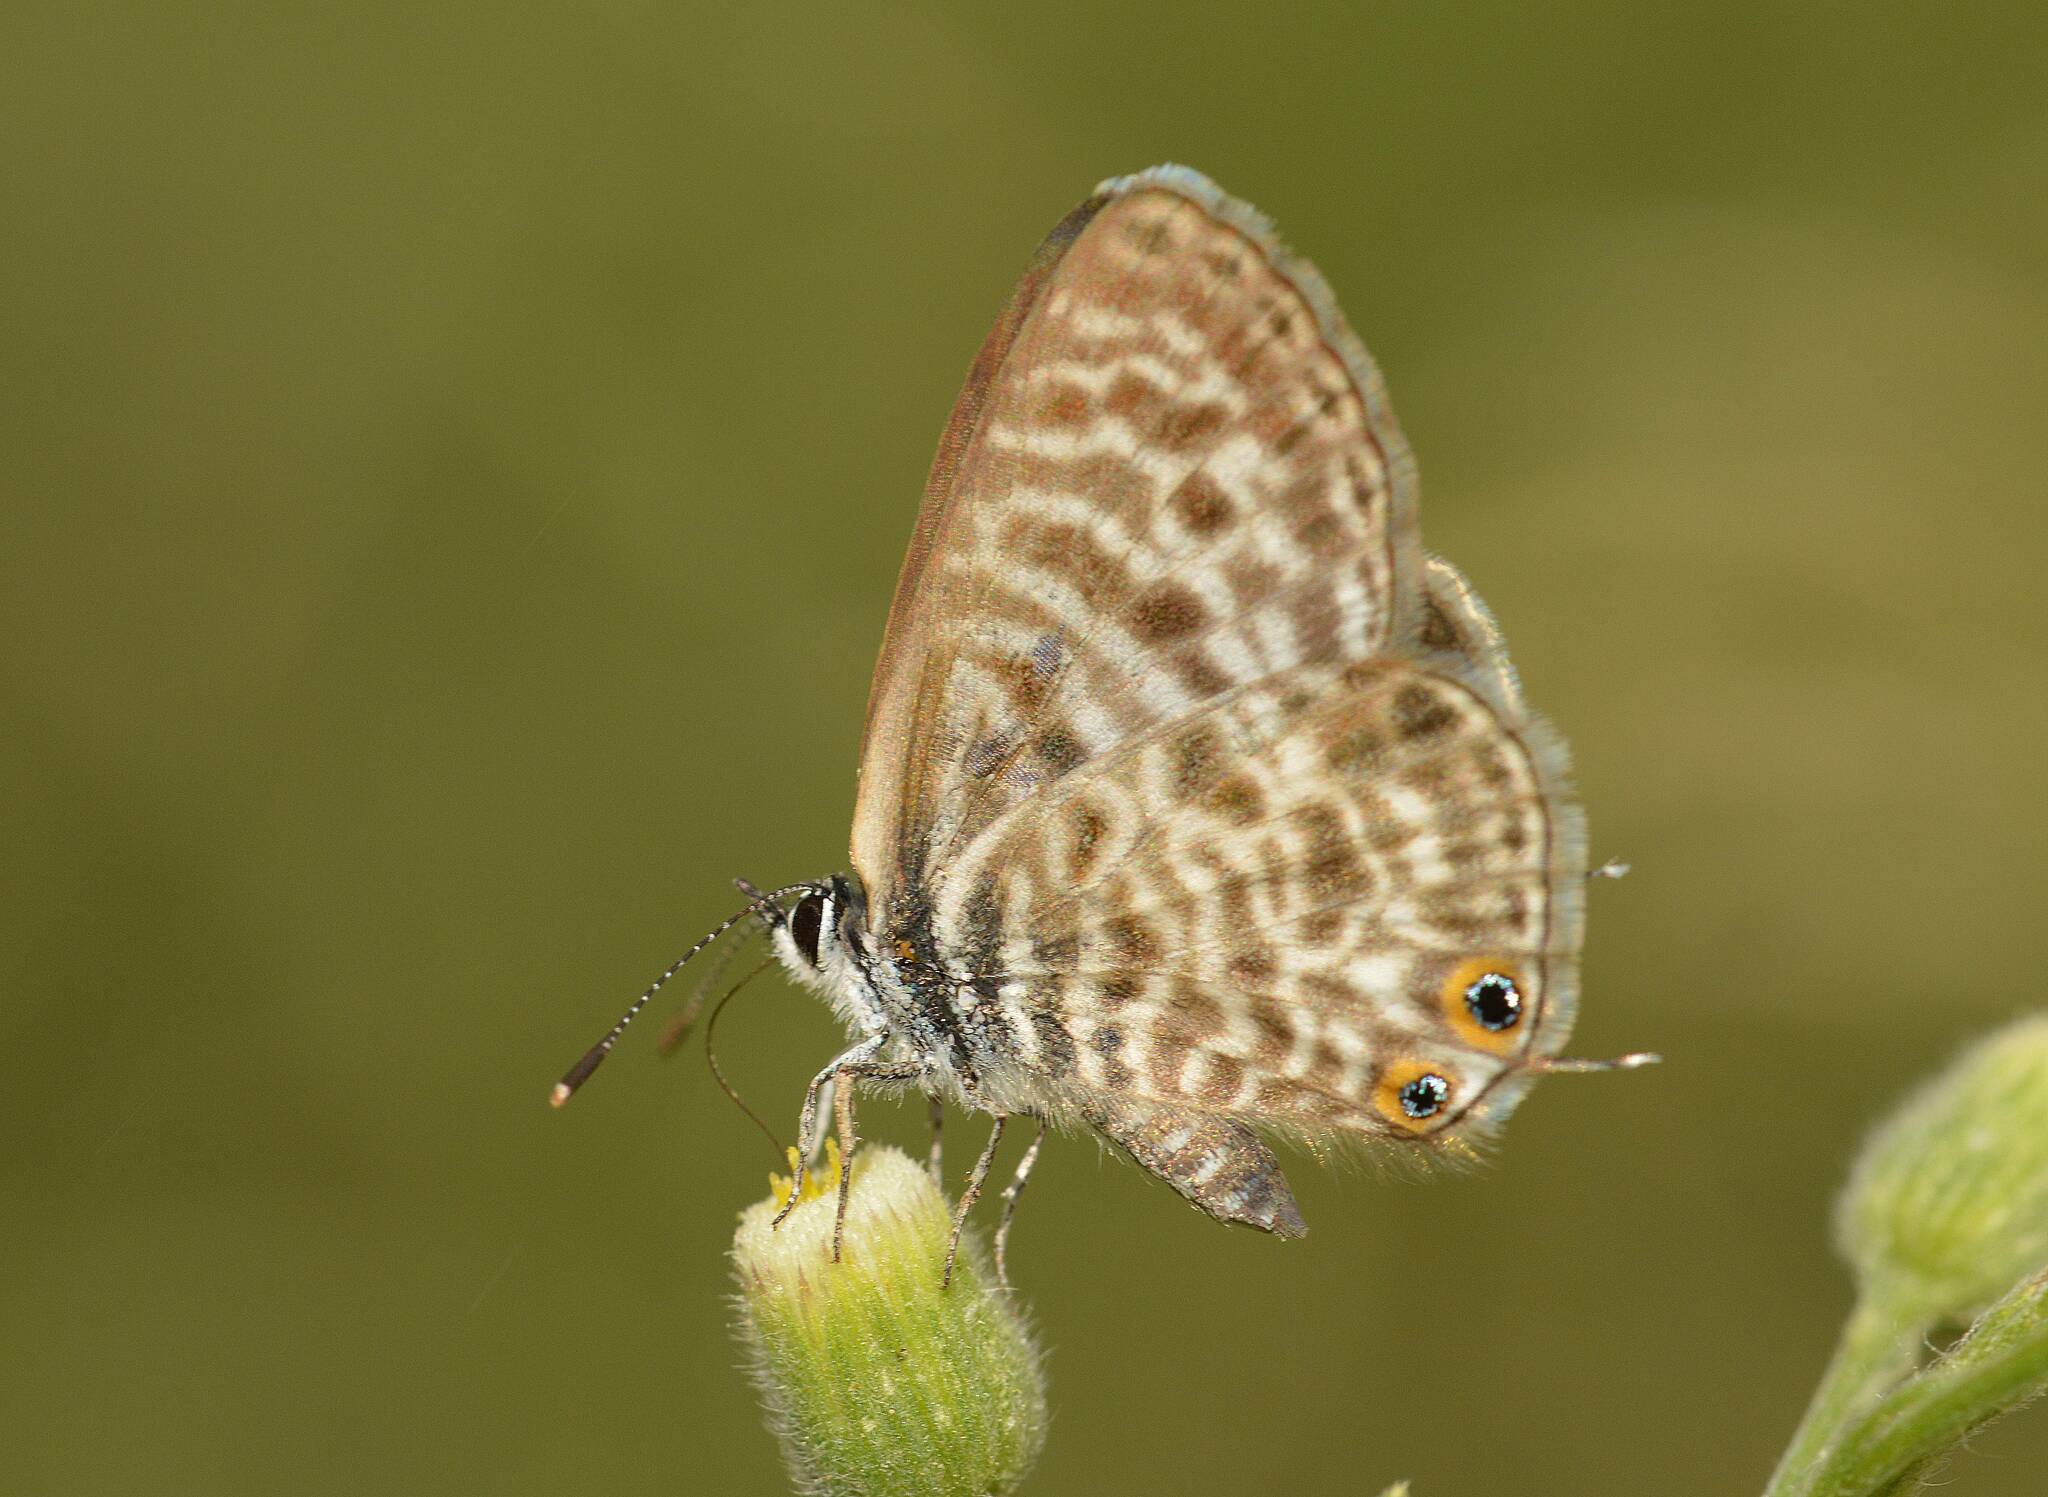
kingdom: Animalia
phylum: Arthropoda
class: Insecta
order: Lepidoptera
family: Lycaenidae
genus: Leptotes
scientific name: Leptotes pirithous
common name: Lang's short-tailed blue
